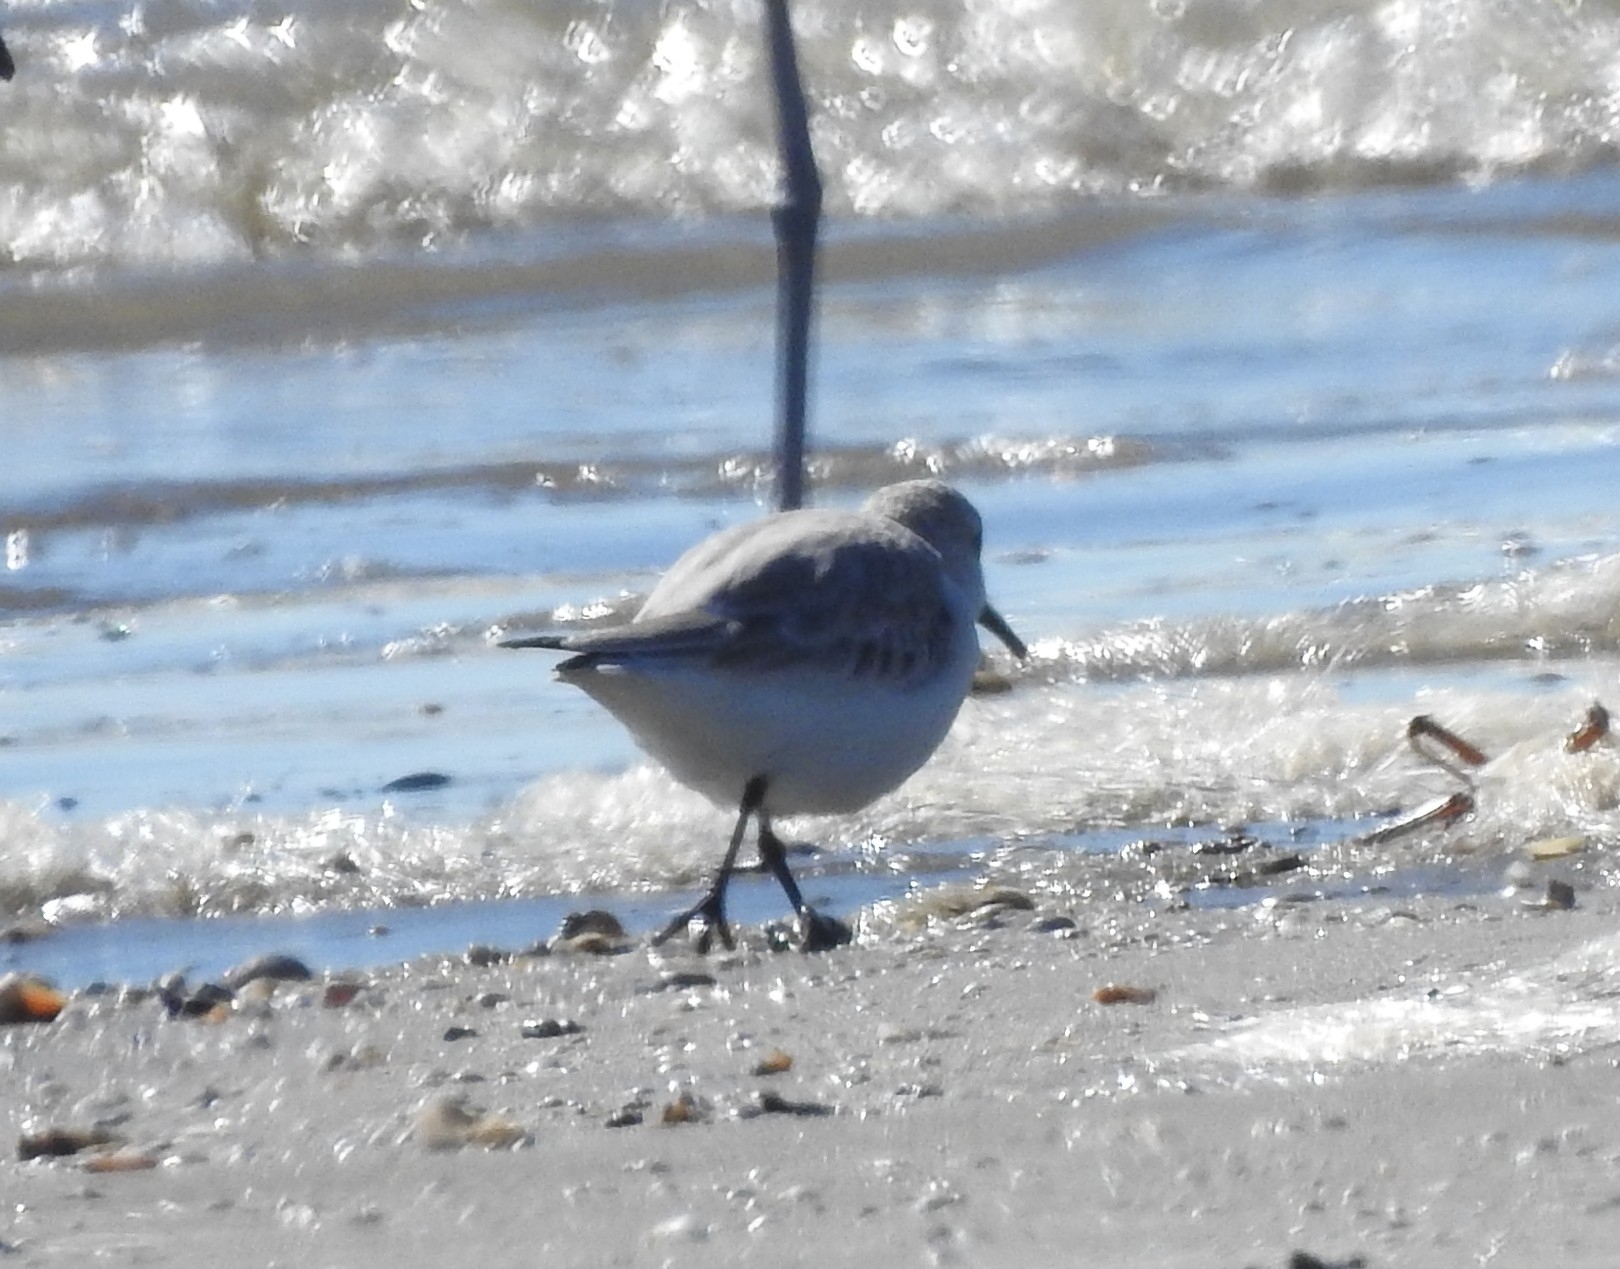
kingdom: Animalia
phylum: Chordata
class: Aves
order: Charadriiformes
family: Scolopacidae
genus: Calidris
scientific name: Calidris alba
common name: Sanderling
